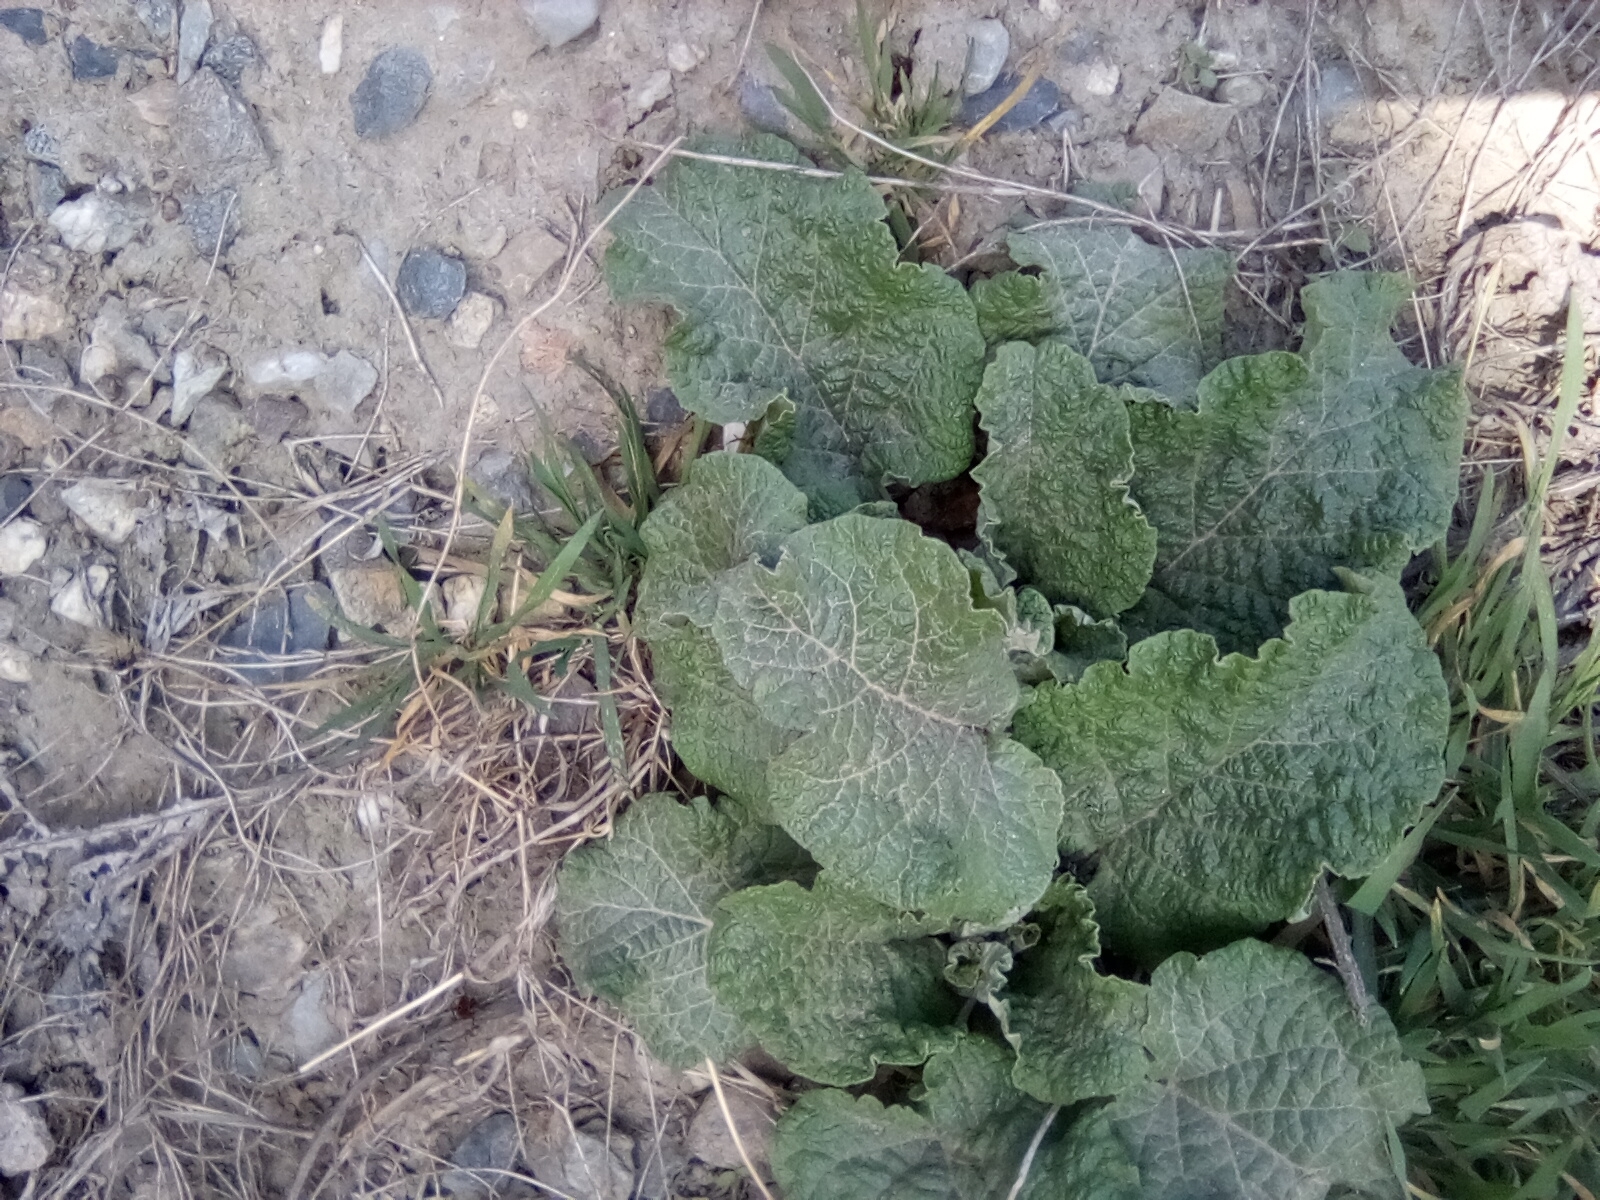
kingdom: Plantae
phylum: Tracheophyta
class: Magnoliopsida
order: Asterales
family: Asteraceae
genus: Arctium
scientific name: Arctium
